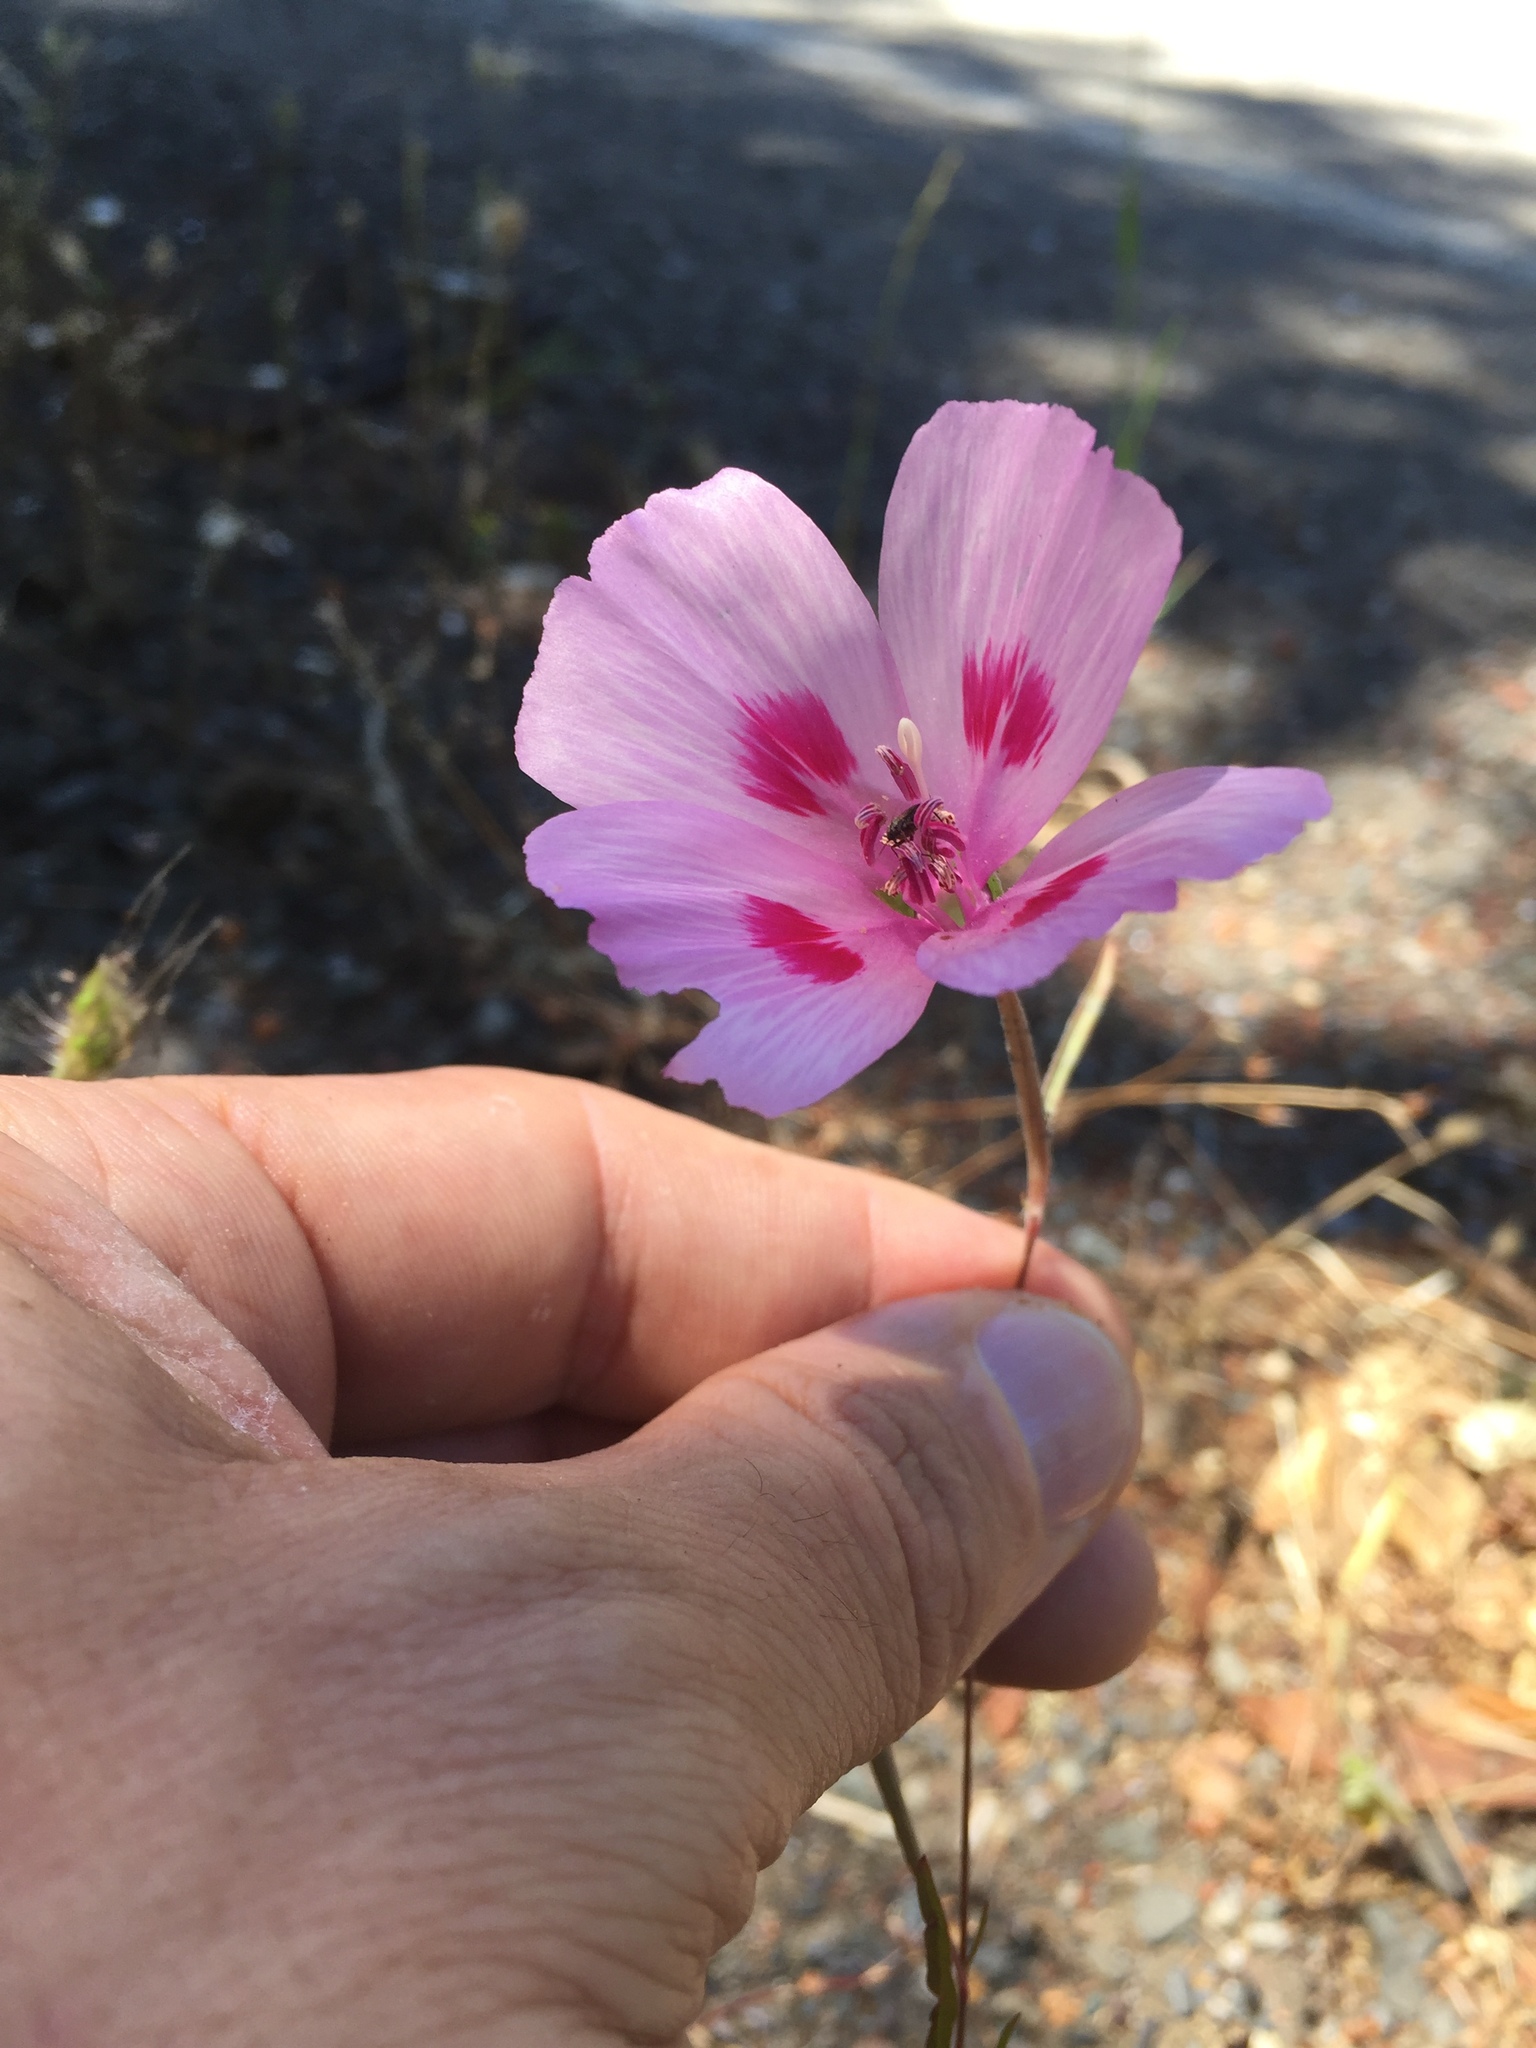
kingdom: Plantae
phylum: Tracheophyta
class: Magnoliopsida
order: Myrtales
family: Onagraceae
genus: Clarkia
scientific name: Clarkia amoena
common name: Godetia
